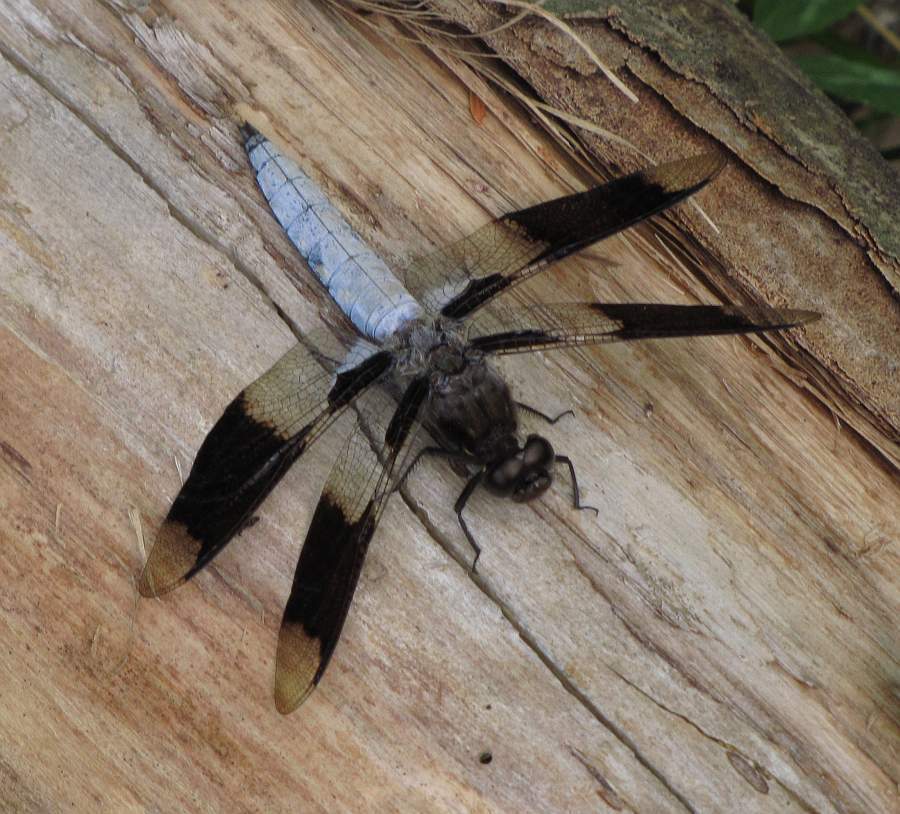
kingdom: Animalia
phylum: Arthropoda
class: Insecta
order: Odonata
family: Libellulidae
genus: Plathemis
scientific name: Plathemis lydia
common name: Common whitetail
